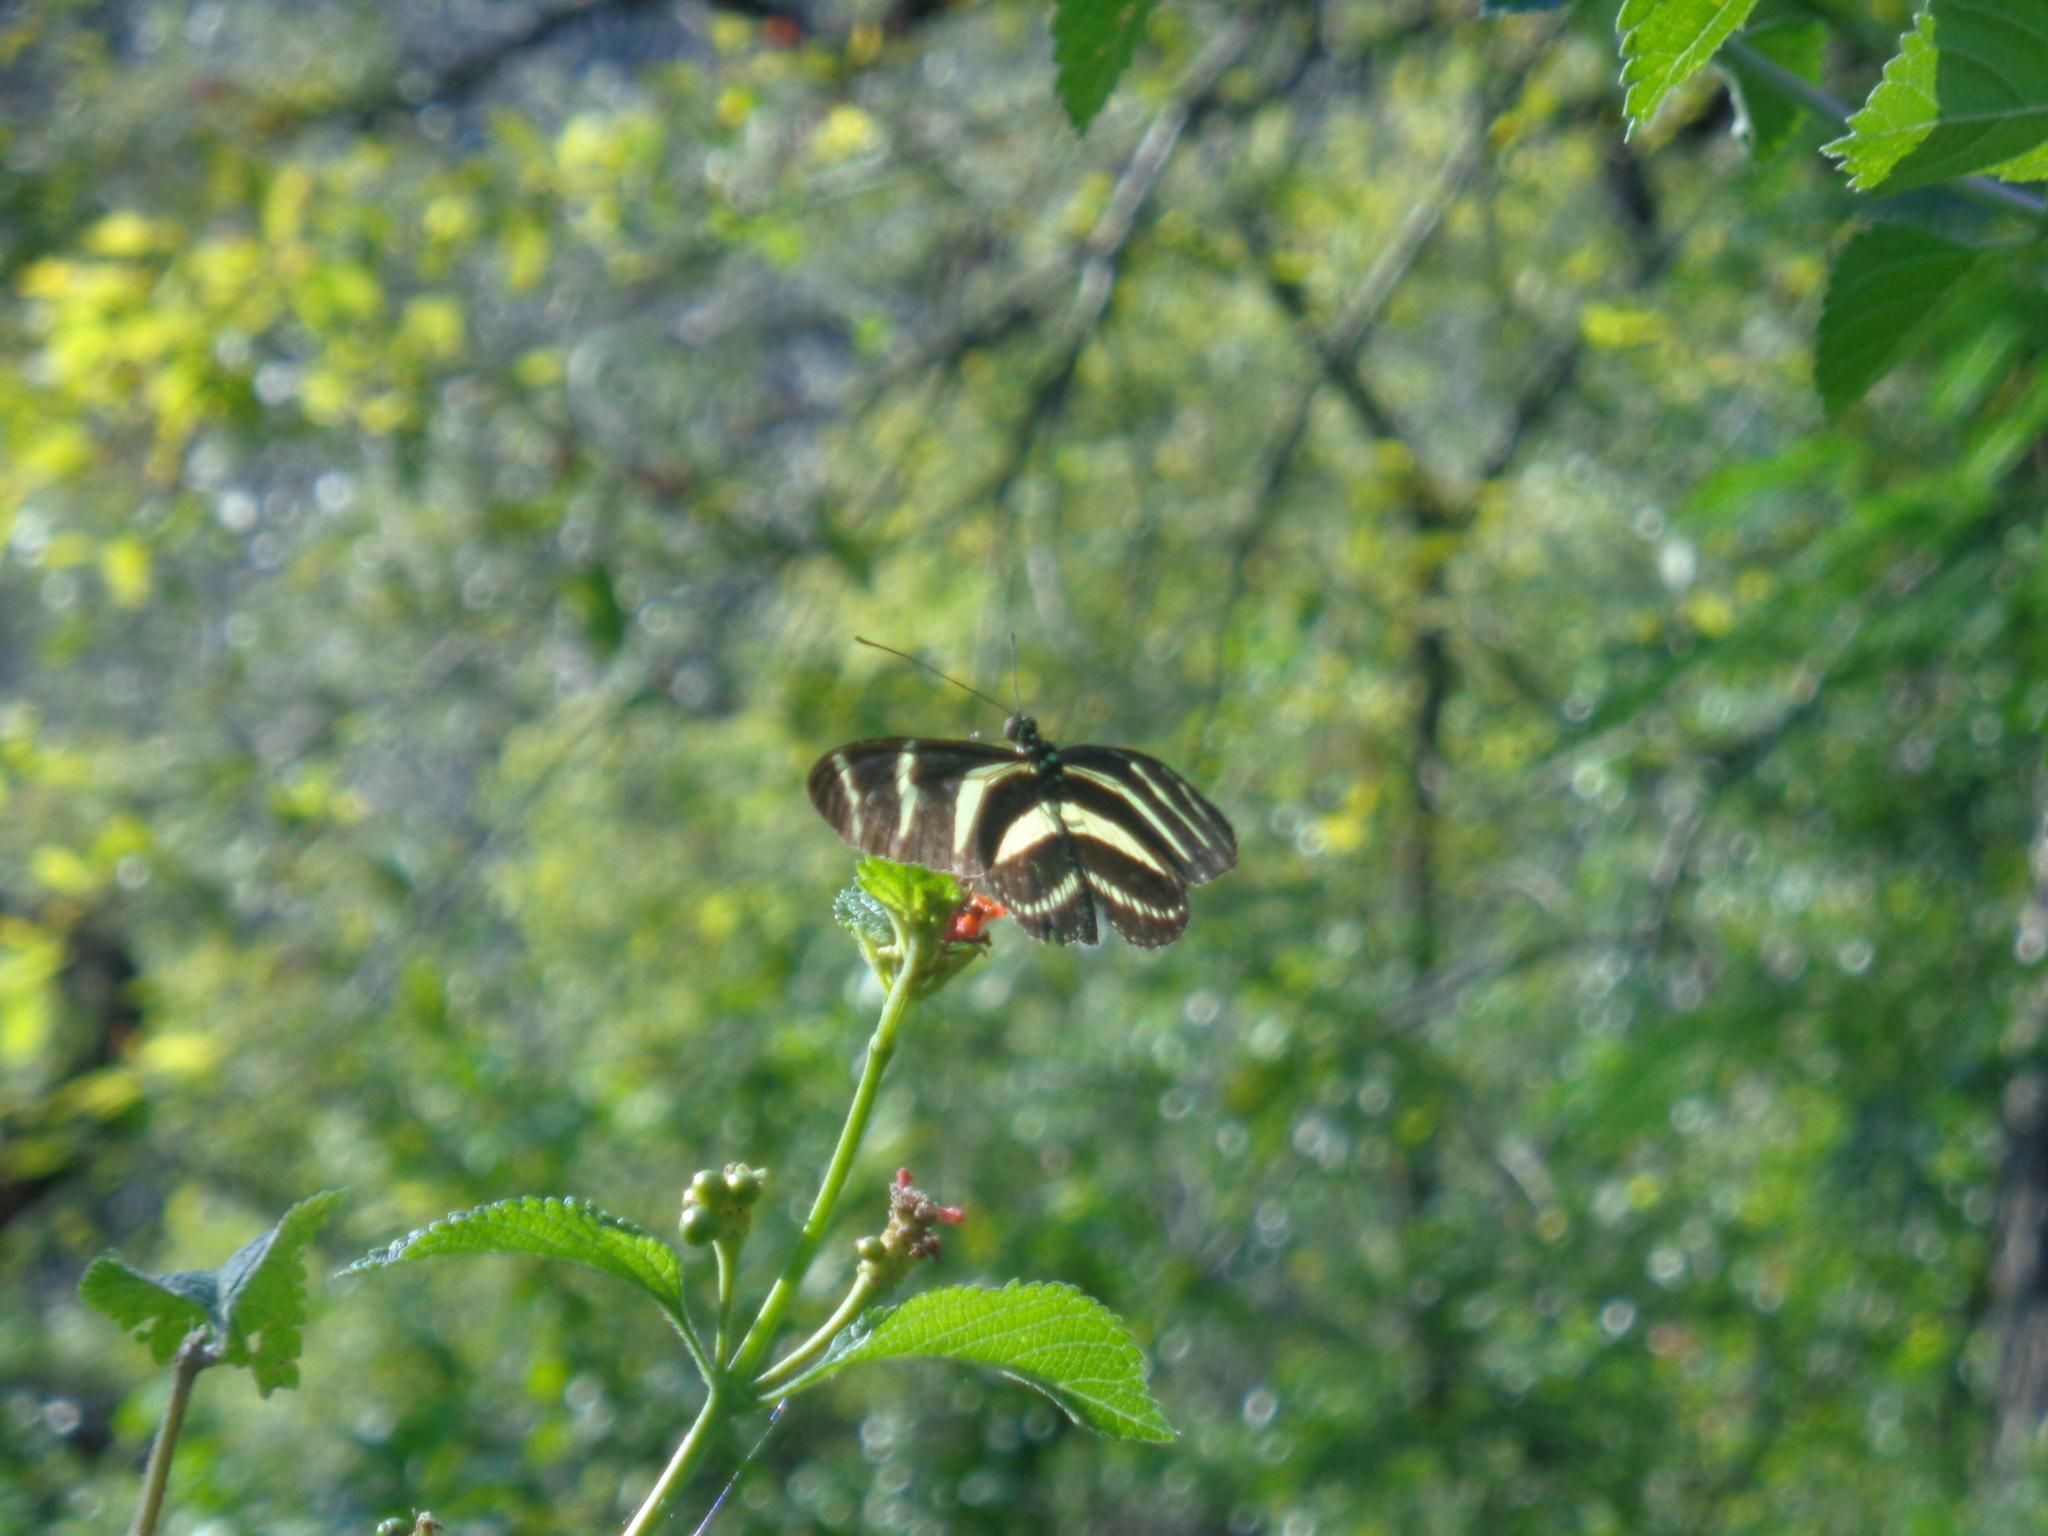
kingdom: Animalia
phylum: Arthropoda
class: Insecta
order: Lepidoptera
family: Nymphalidae
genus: Heliconius
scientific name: Heliconius charithonia
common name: Zebra long wing
